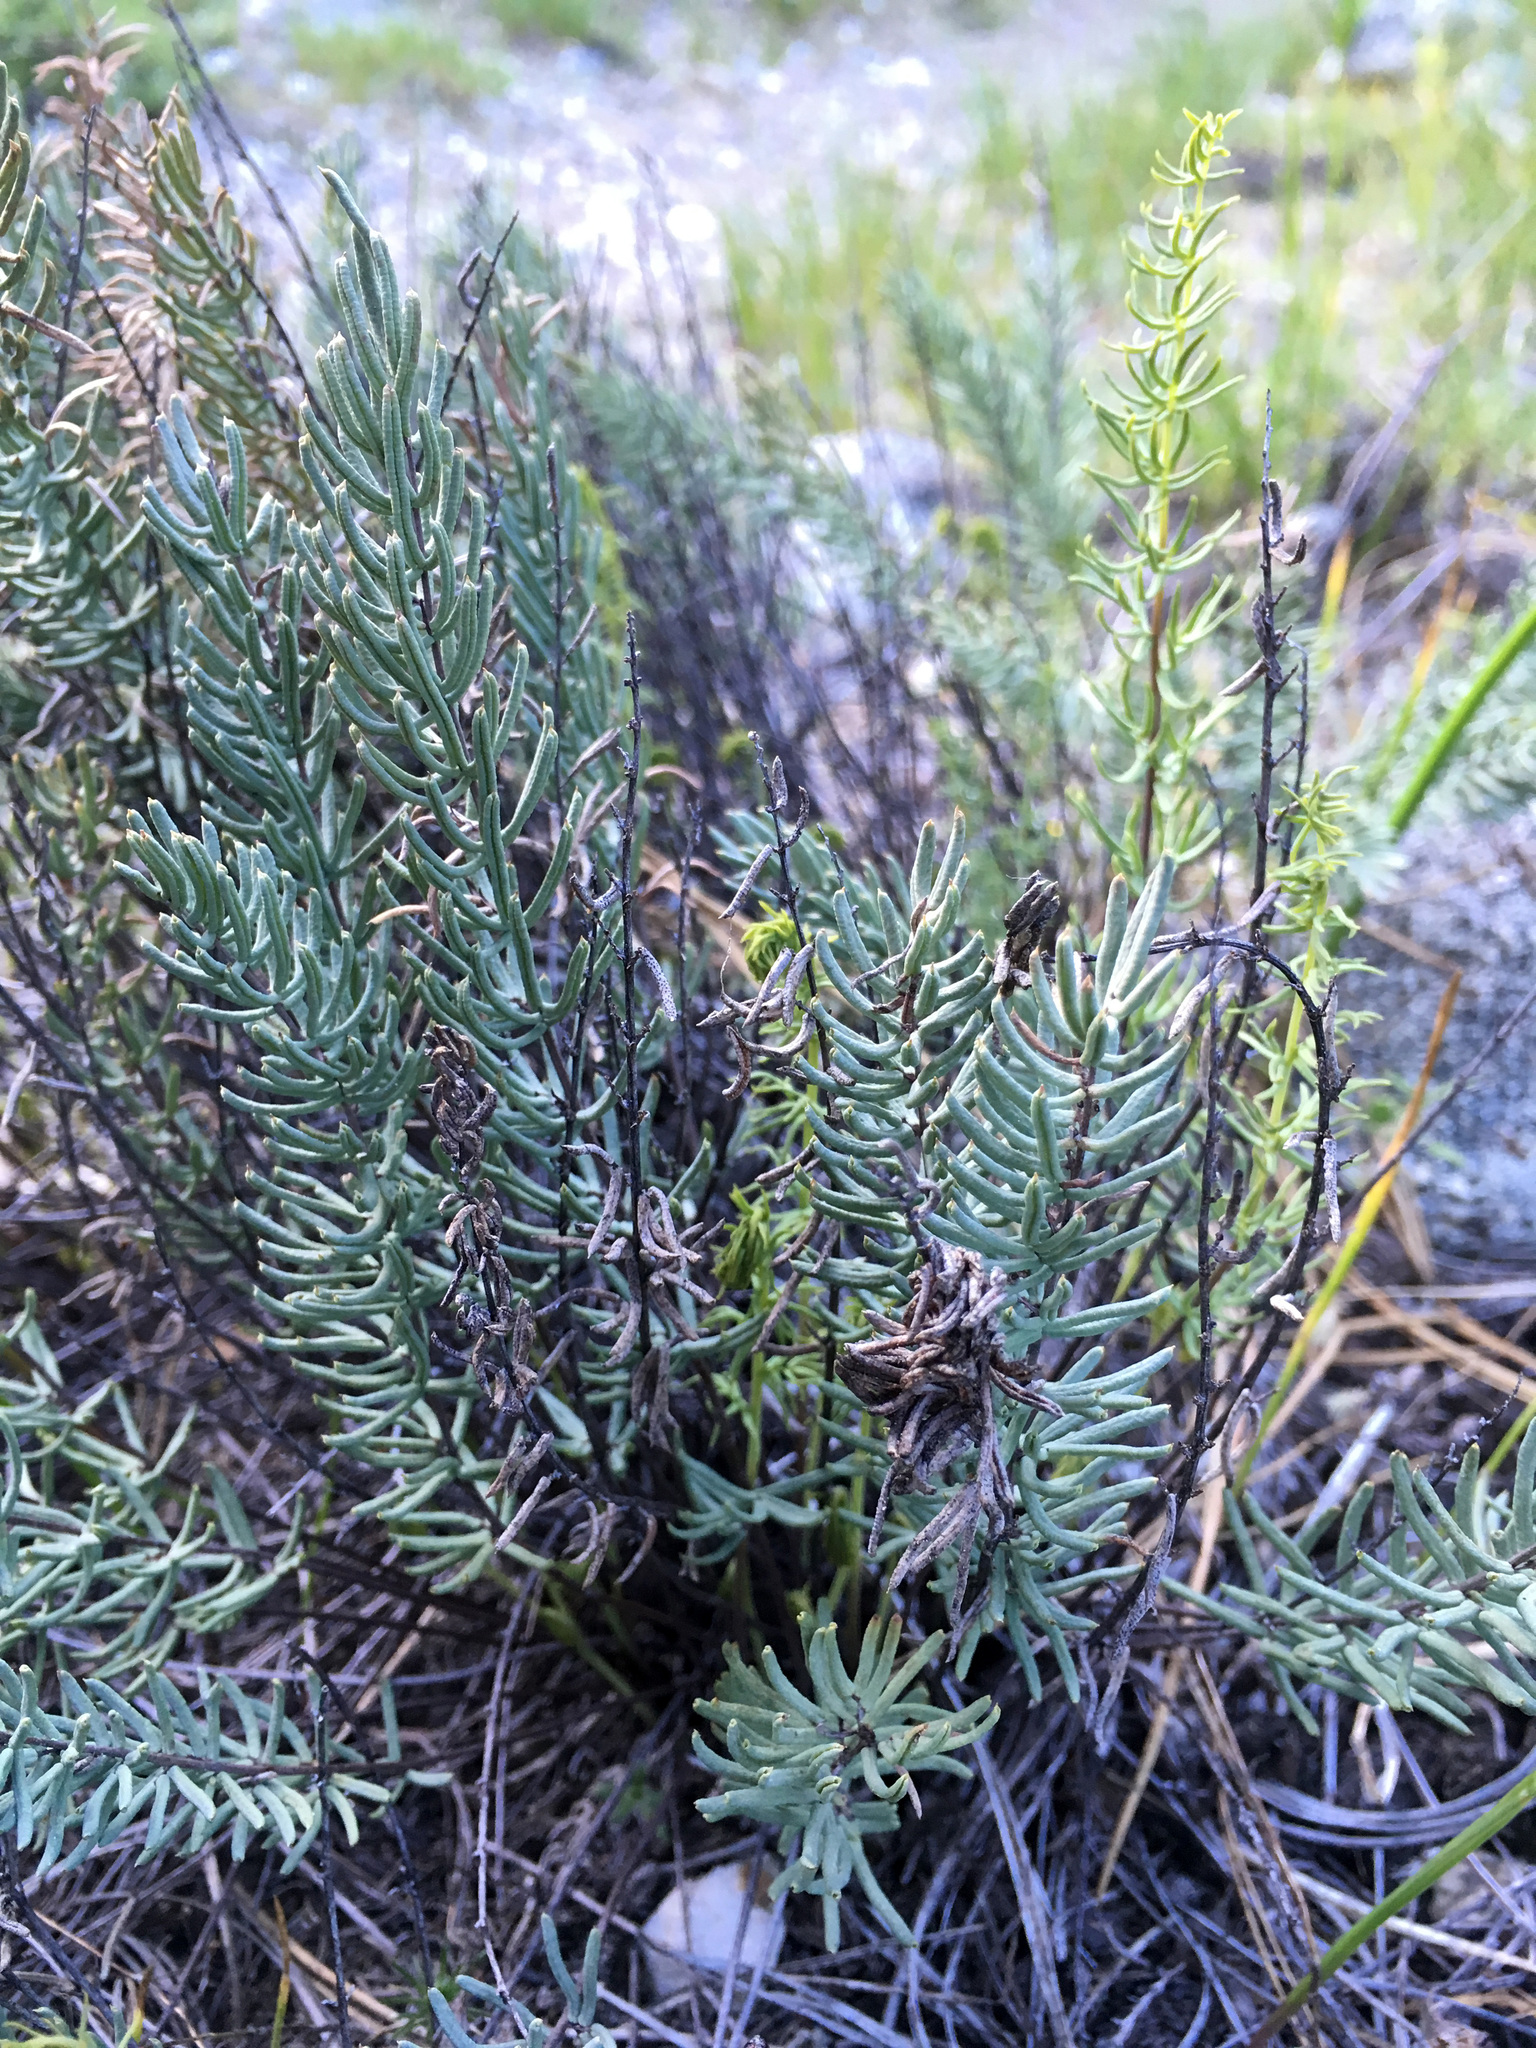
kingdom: Plantae
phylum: Tracheophyta
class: Polypodiopsida
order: Polypodiales
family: Pteridaceae
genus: Pellaea
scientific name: Pellaea brachyptera
